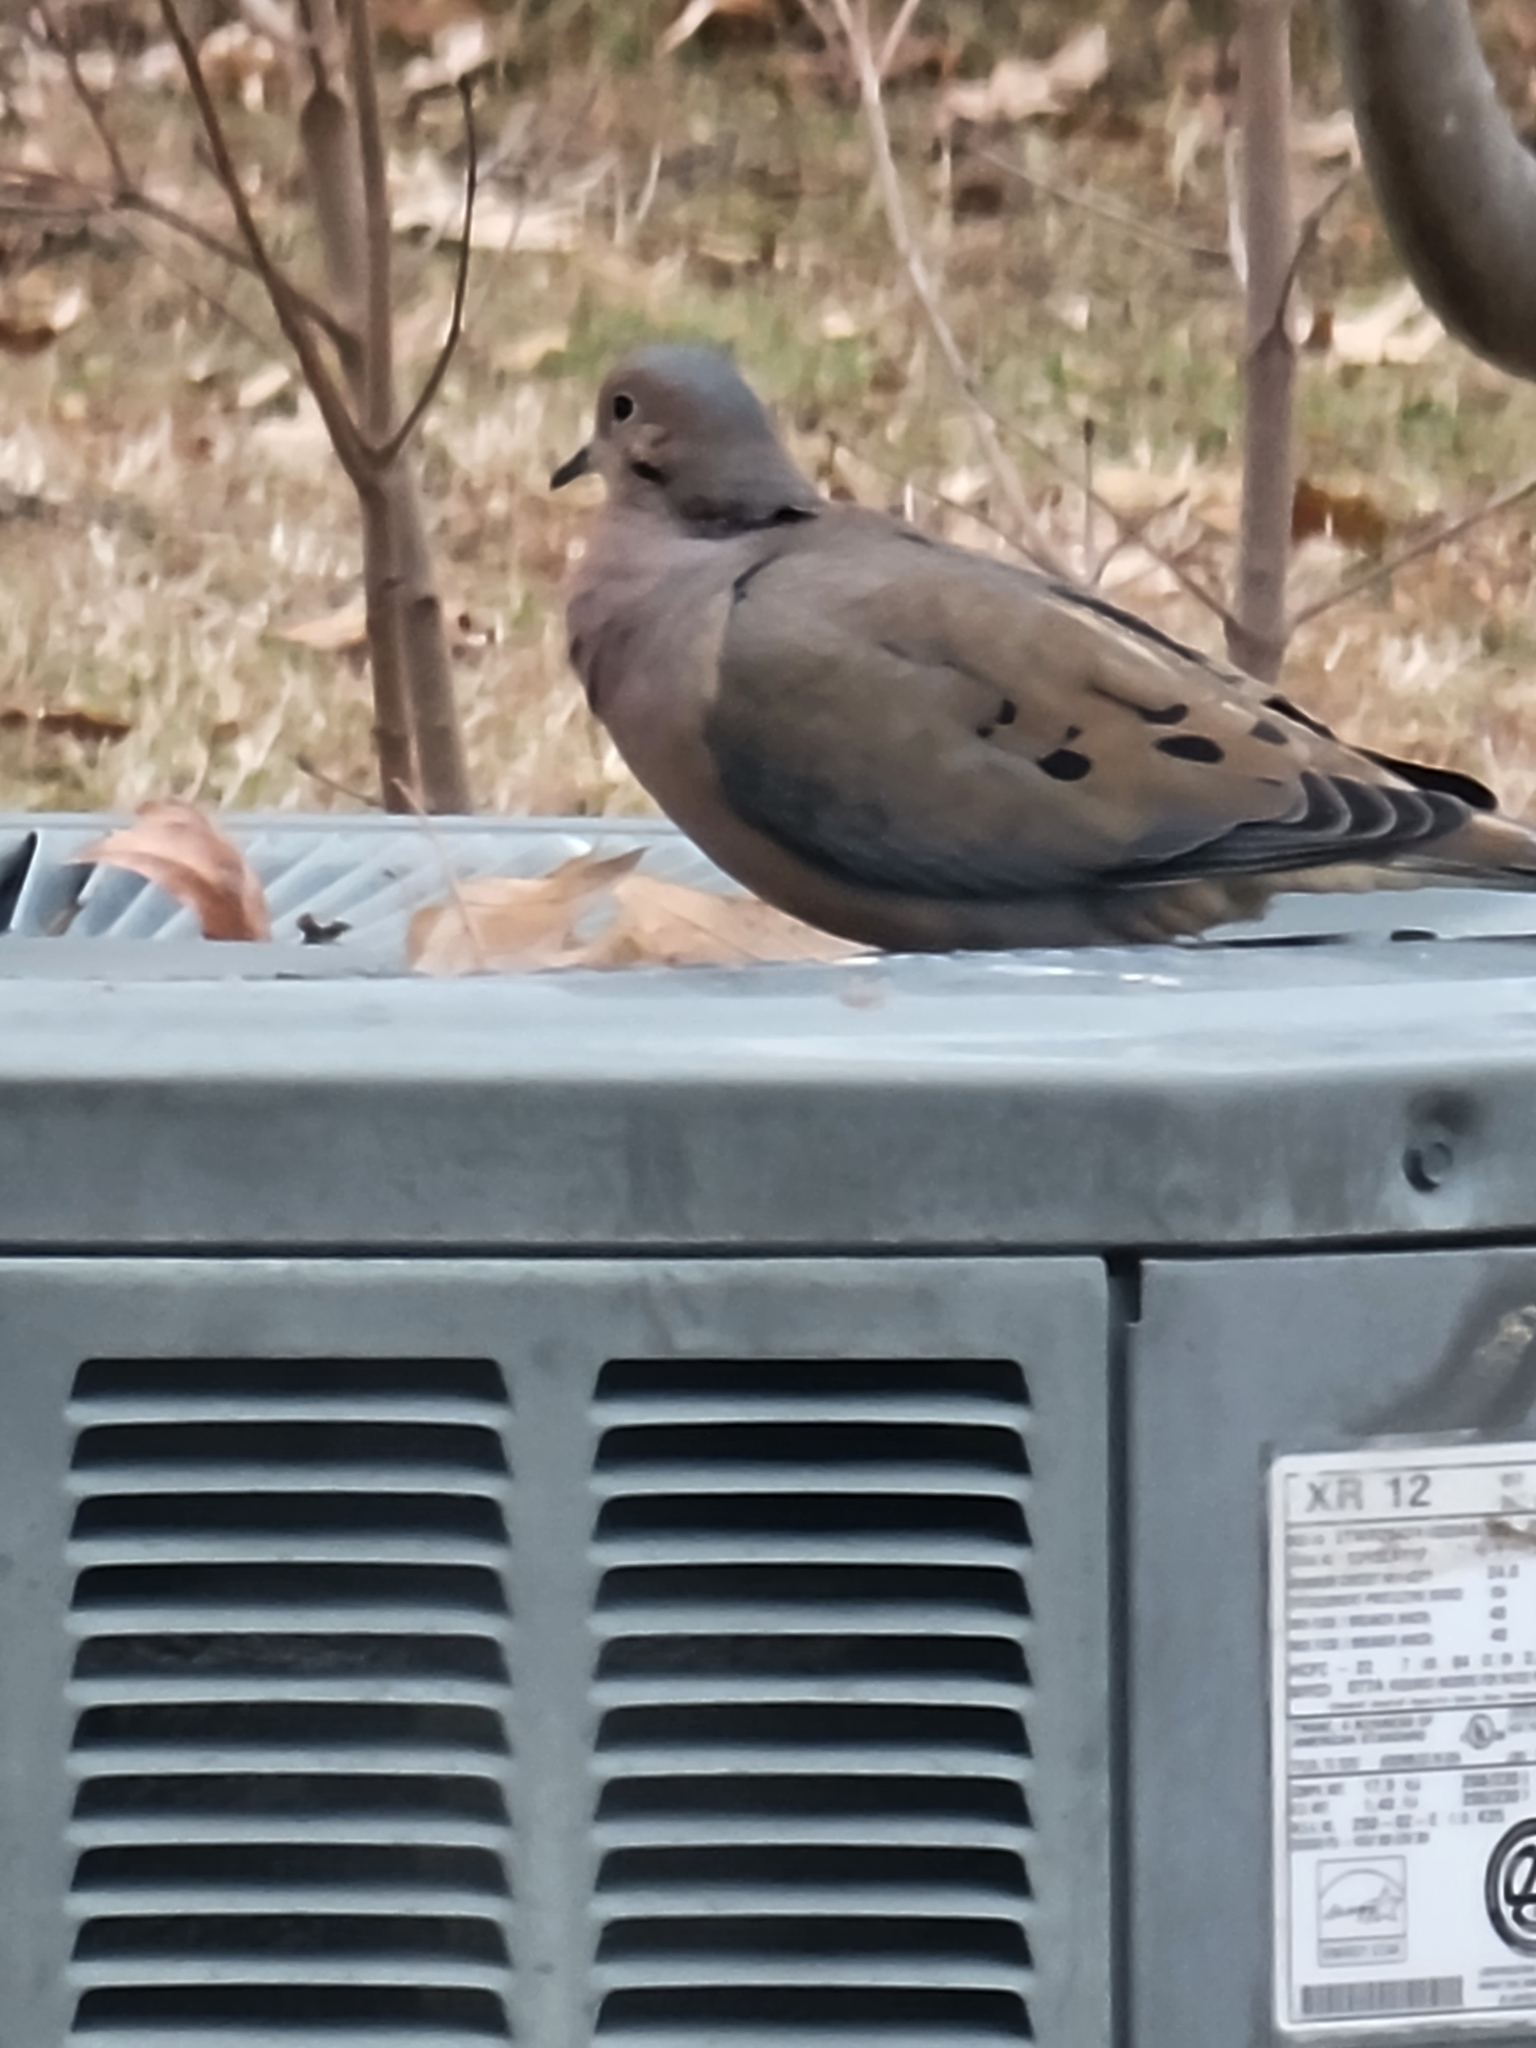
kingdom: Animalia
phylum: Chordata
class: Aves
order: Columbiformes
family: Columbidae
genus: Zenaida
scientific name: Zenaida macroura
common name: Mourning dove
